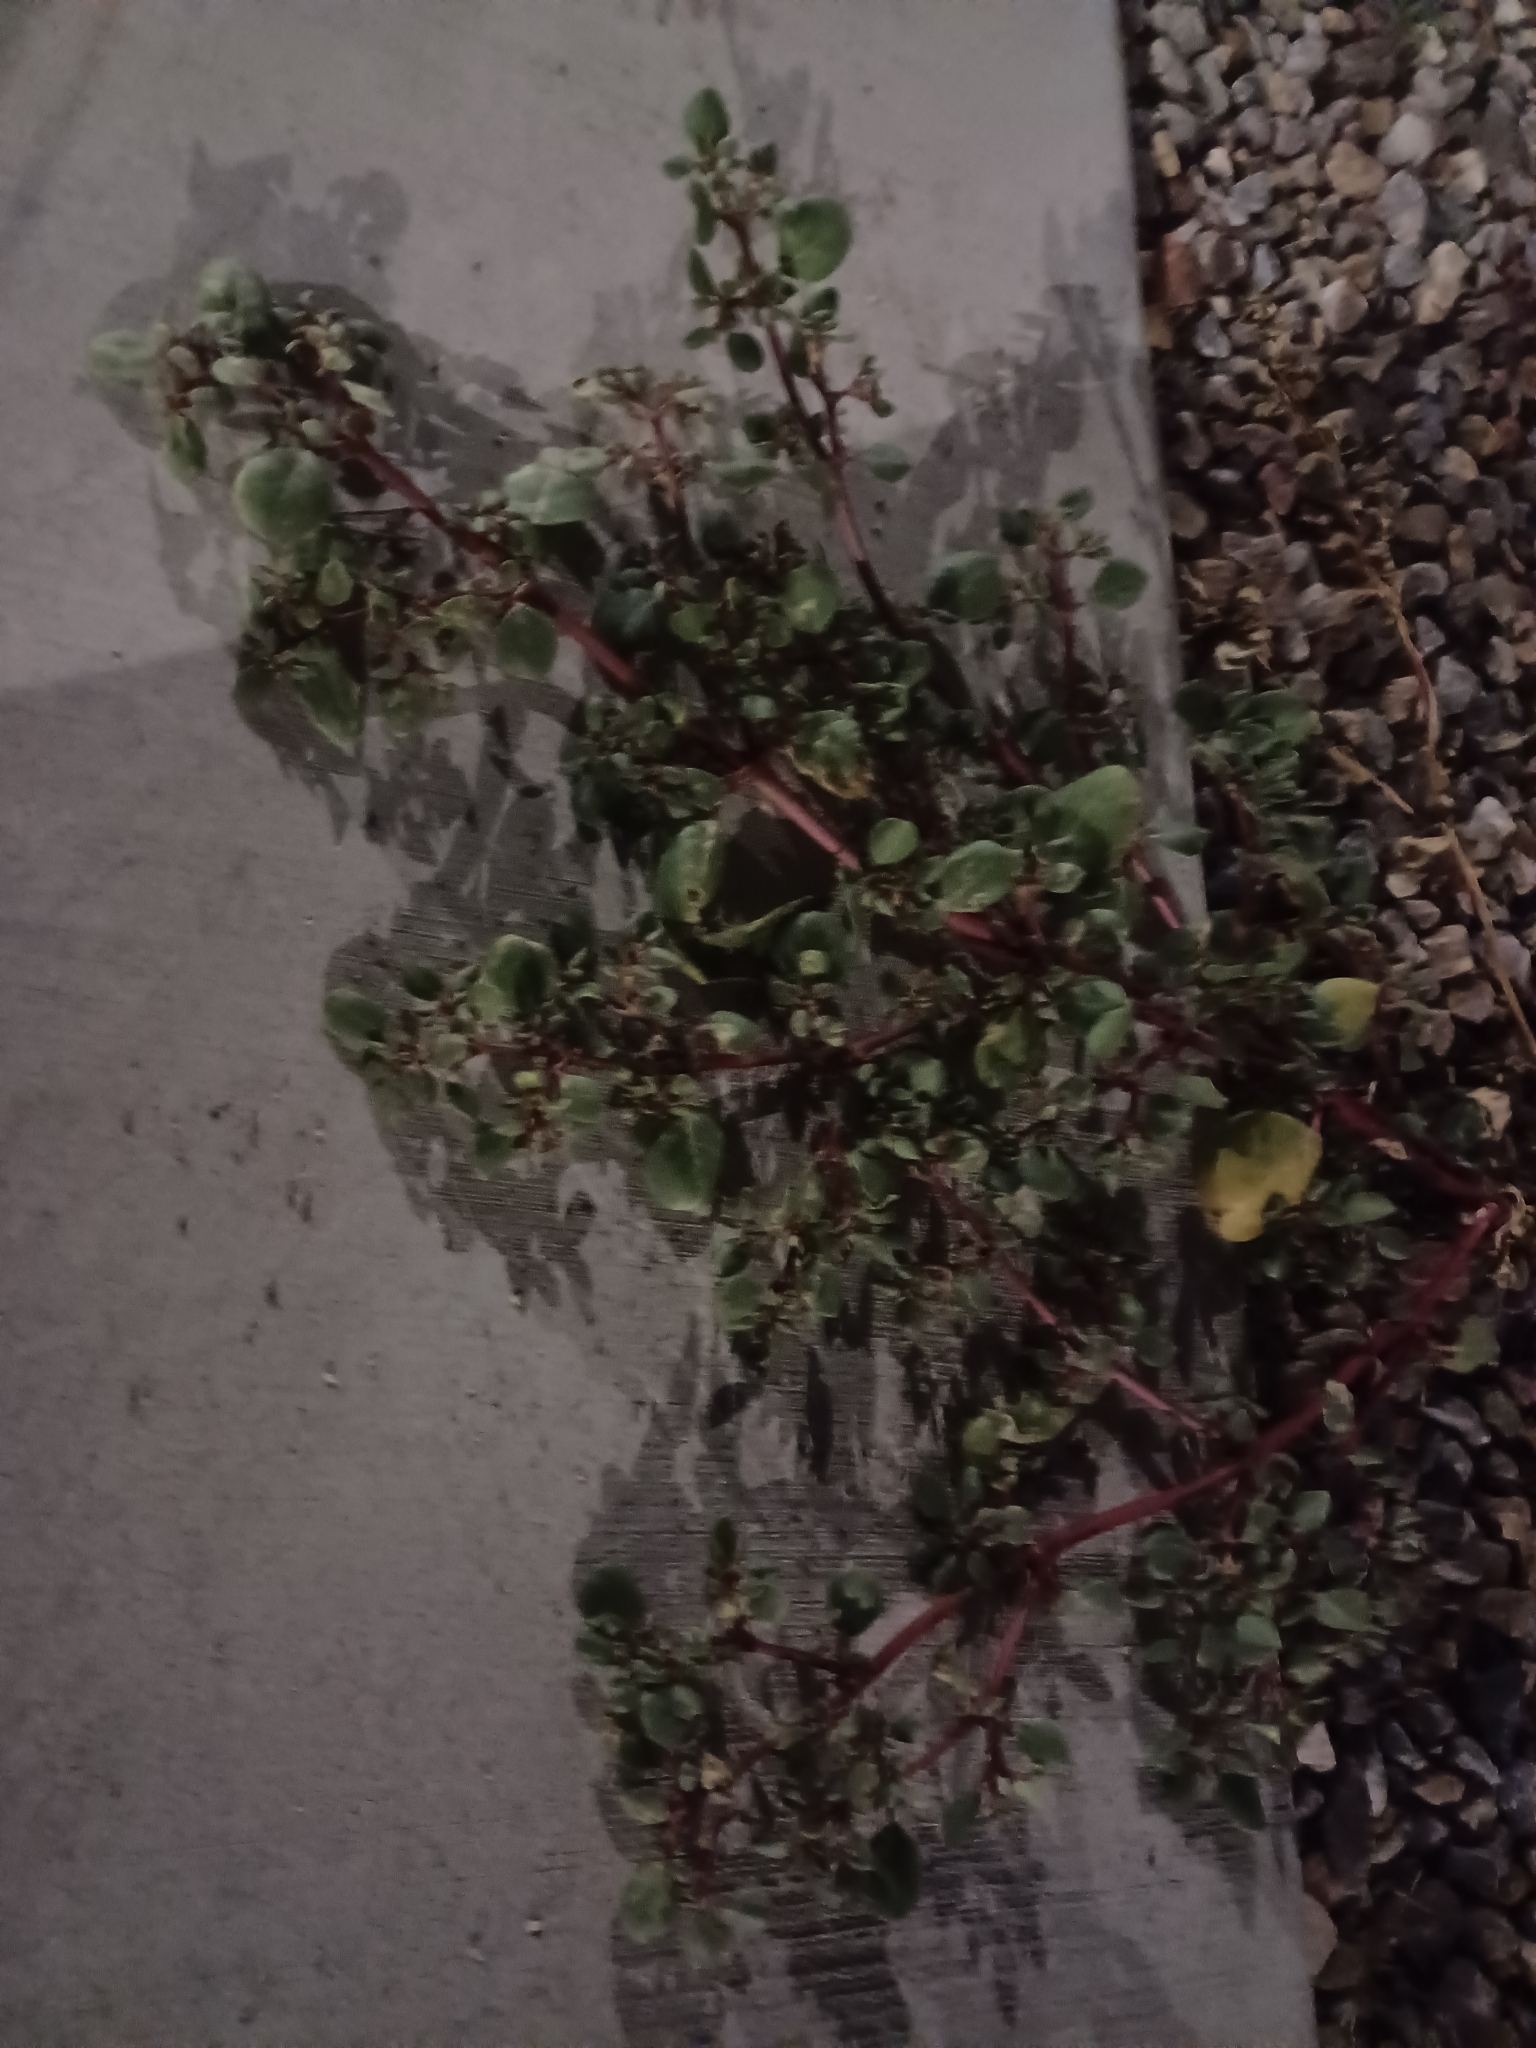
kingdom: Plantae
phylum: Tracheophyta
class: Magnoliopsida
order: Caryophyllales
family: Aizoaceae
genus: Trianthema
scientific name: Trianthema portulacastrum
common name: Desert horsepurslane
